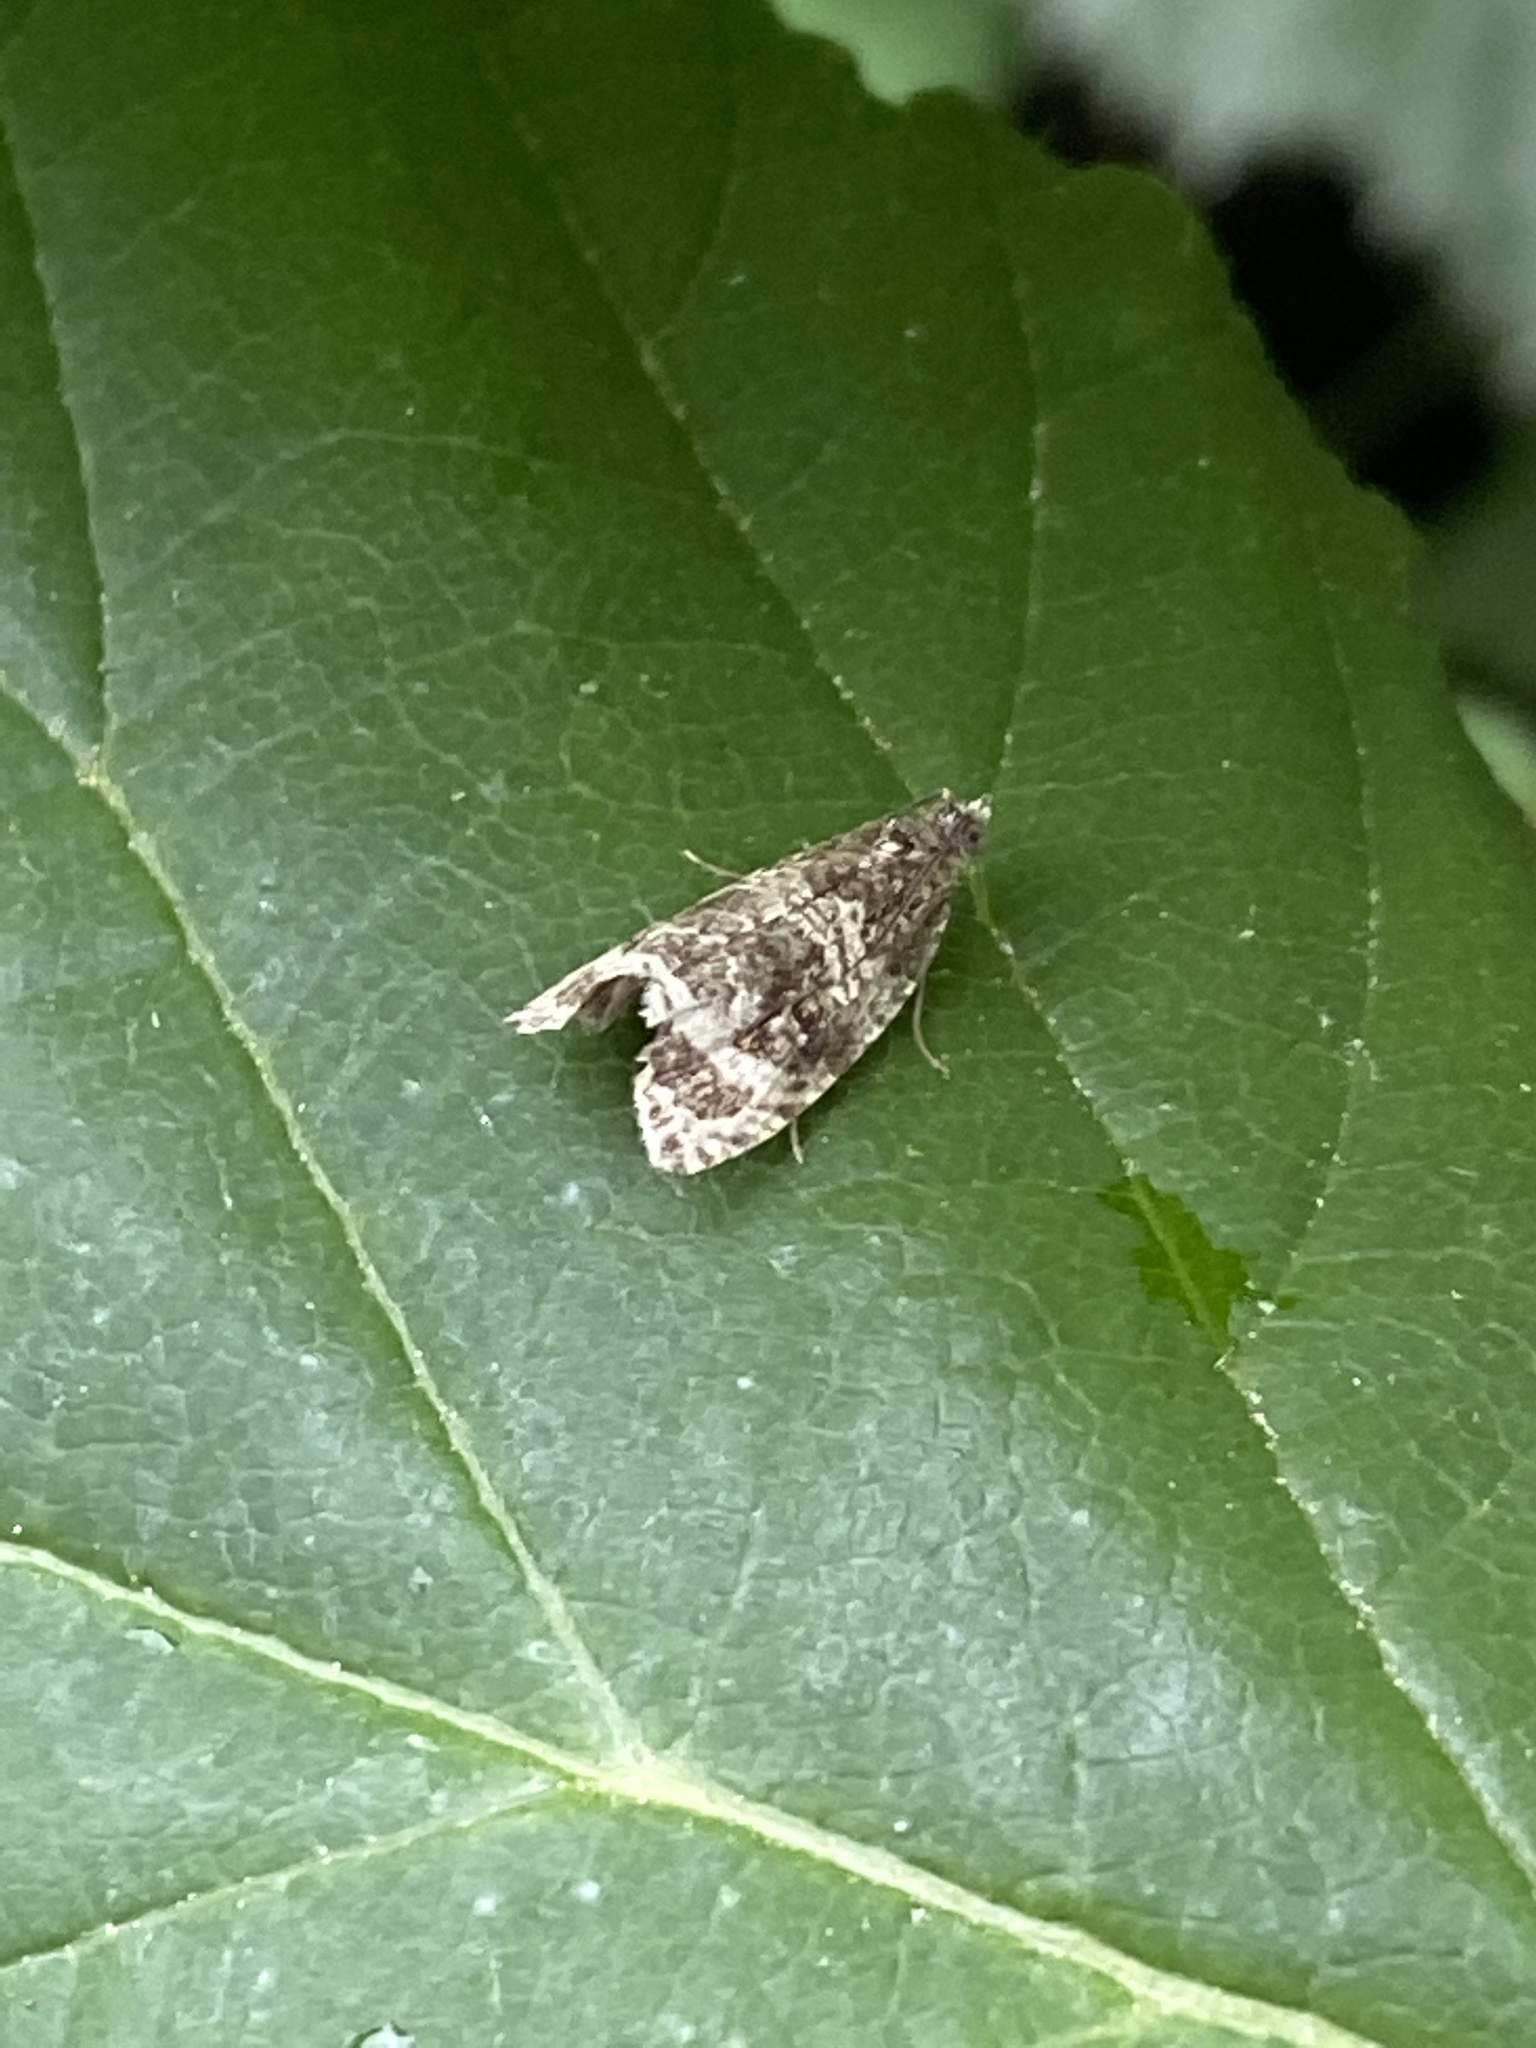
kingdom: Animalia
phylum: Arthropoda
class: Insecta
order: Lepidoptera
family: Tortricidae
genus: Syricoris
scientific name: Syricoris lacunana
